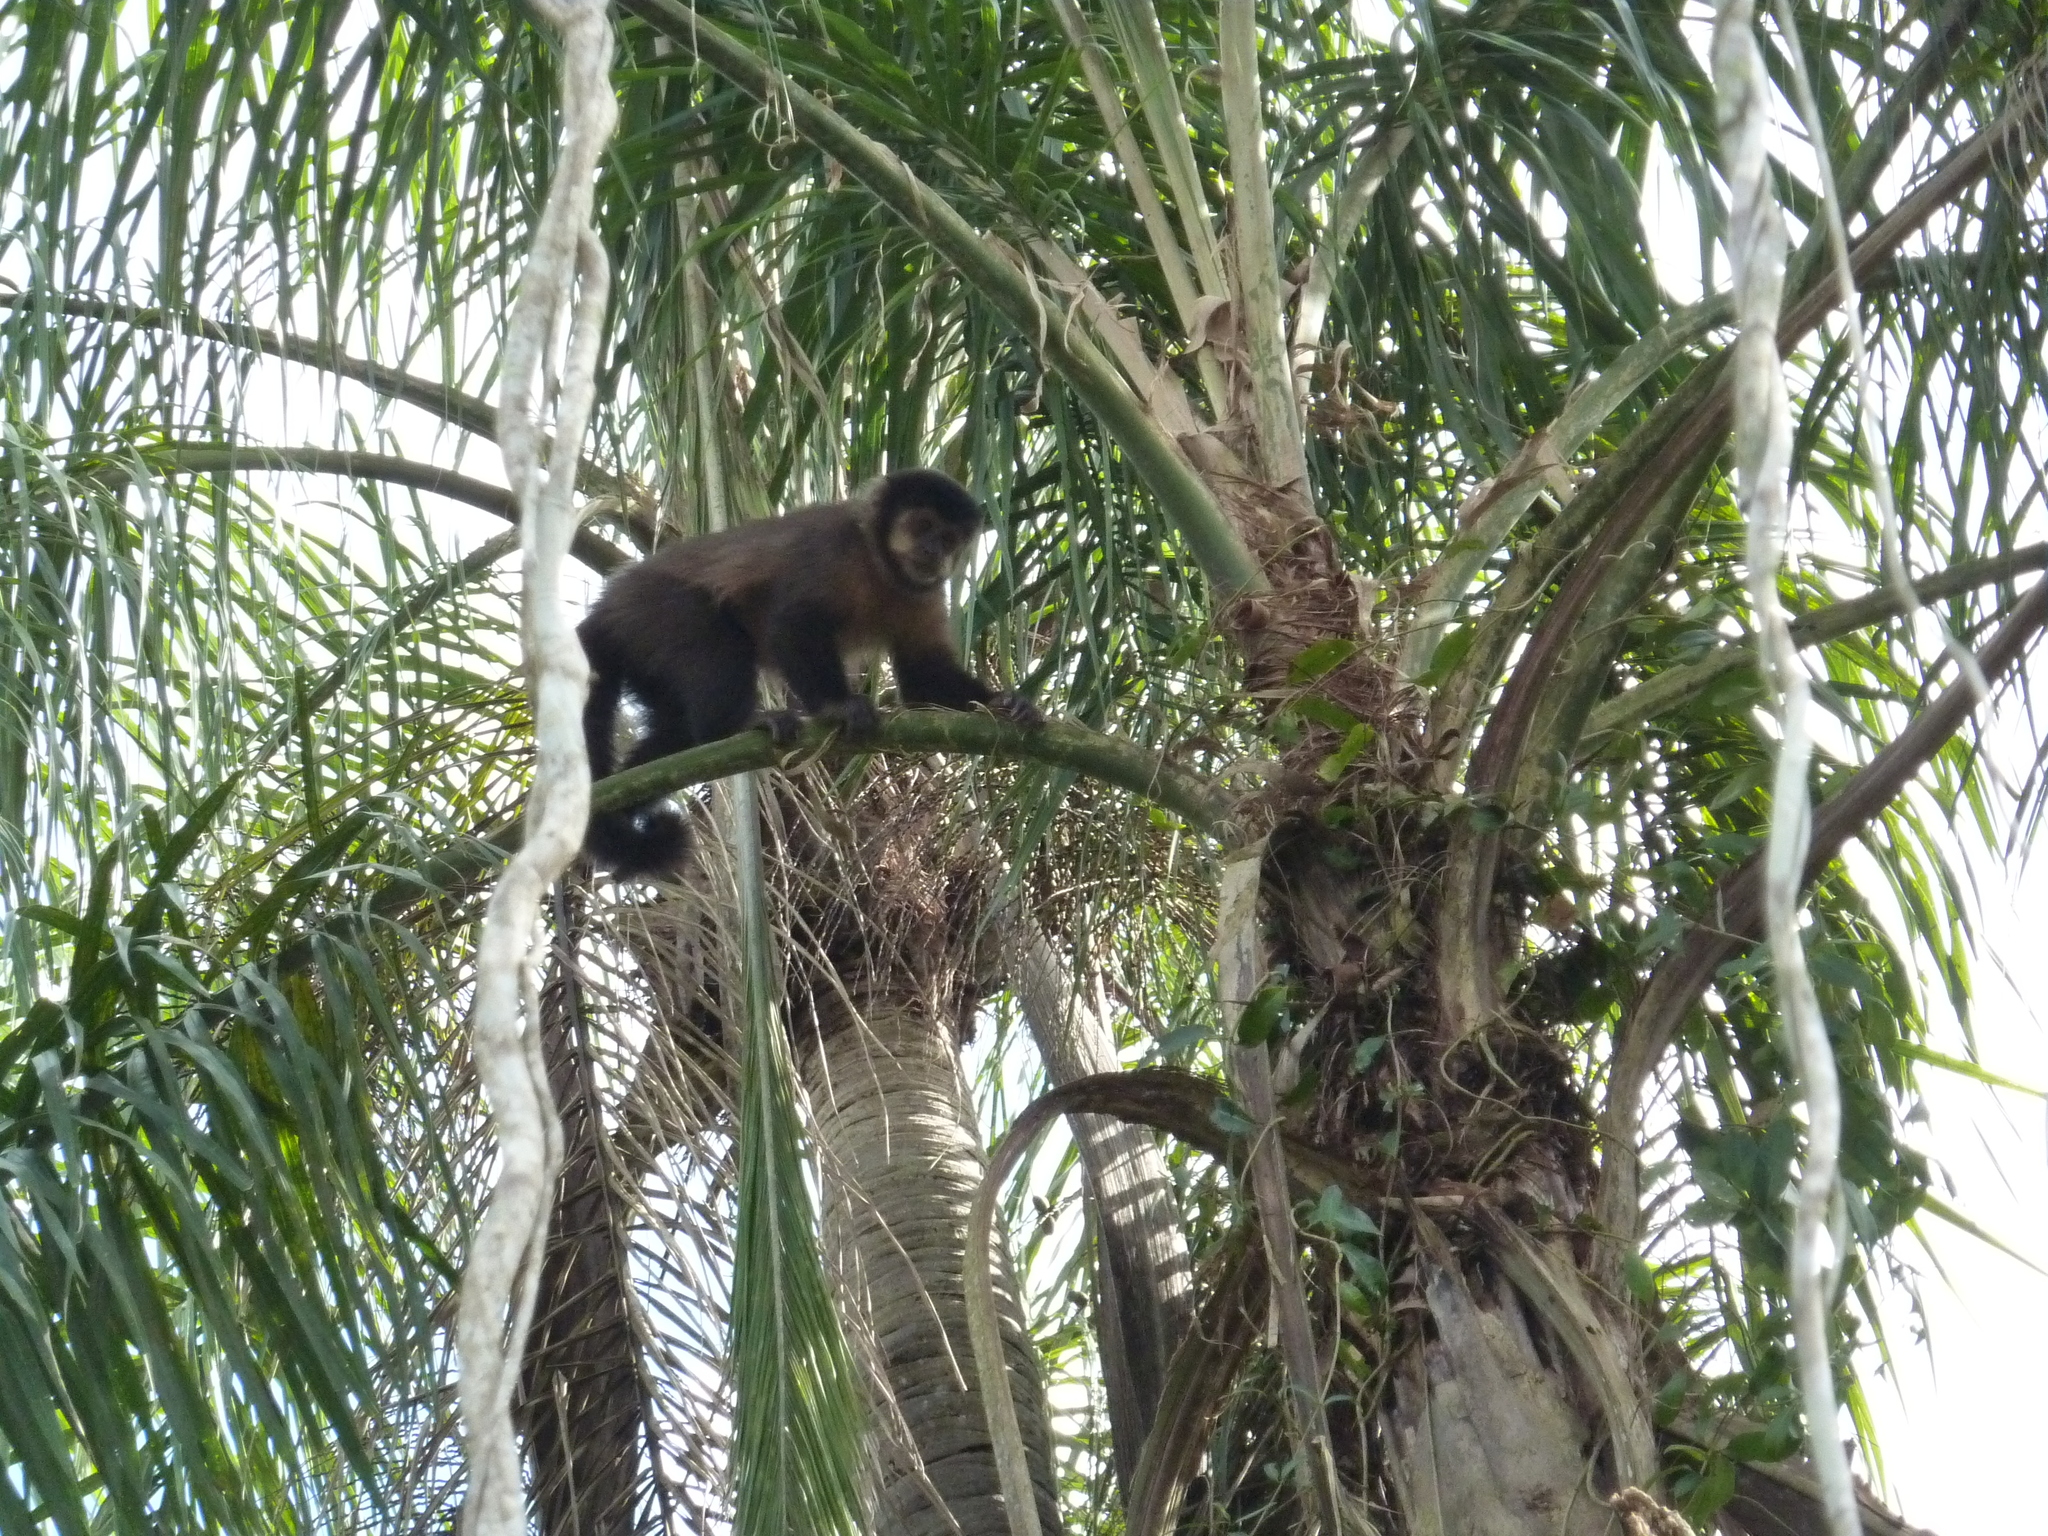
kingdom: Animalia
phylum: Chordata
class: Mammalia
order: Primates
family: Cebidae
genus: Sapajus
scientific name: Sapajus nigritus
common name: Black capuchin
